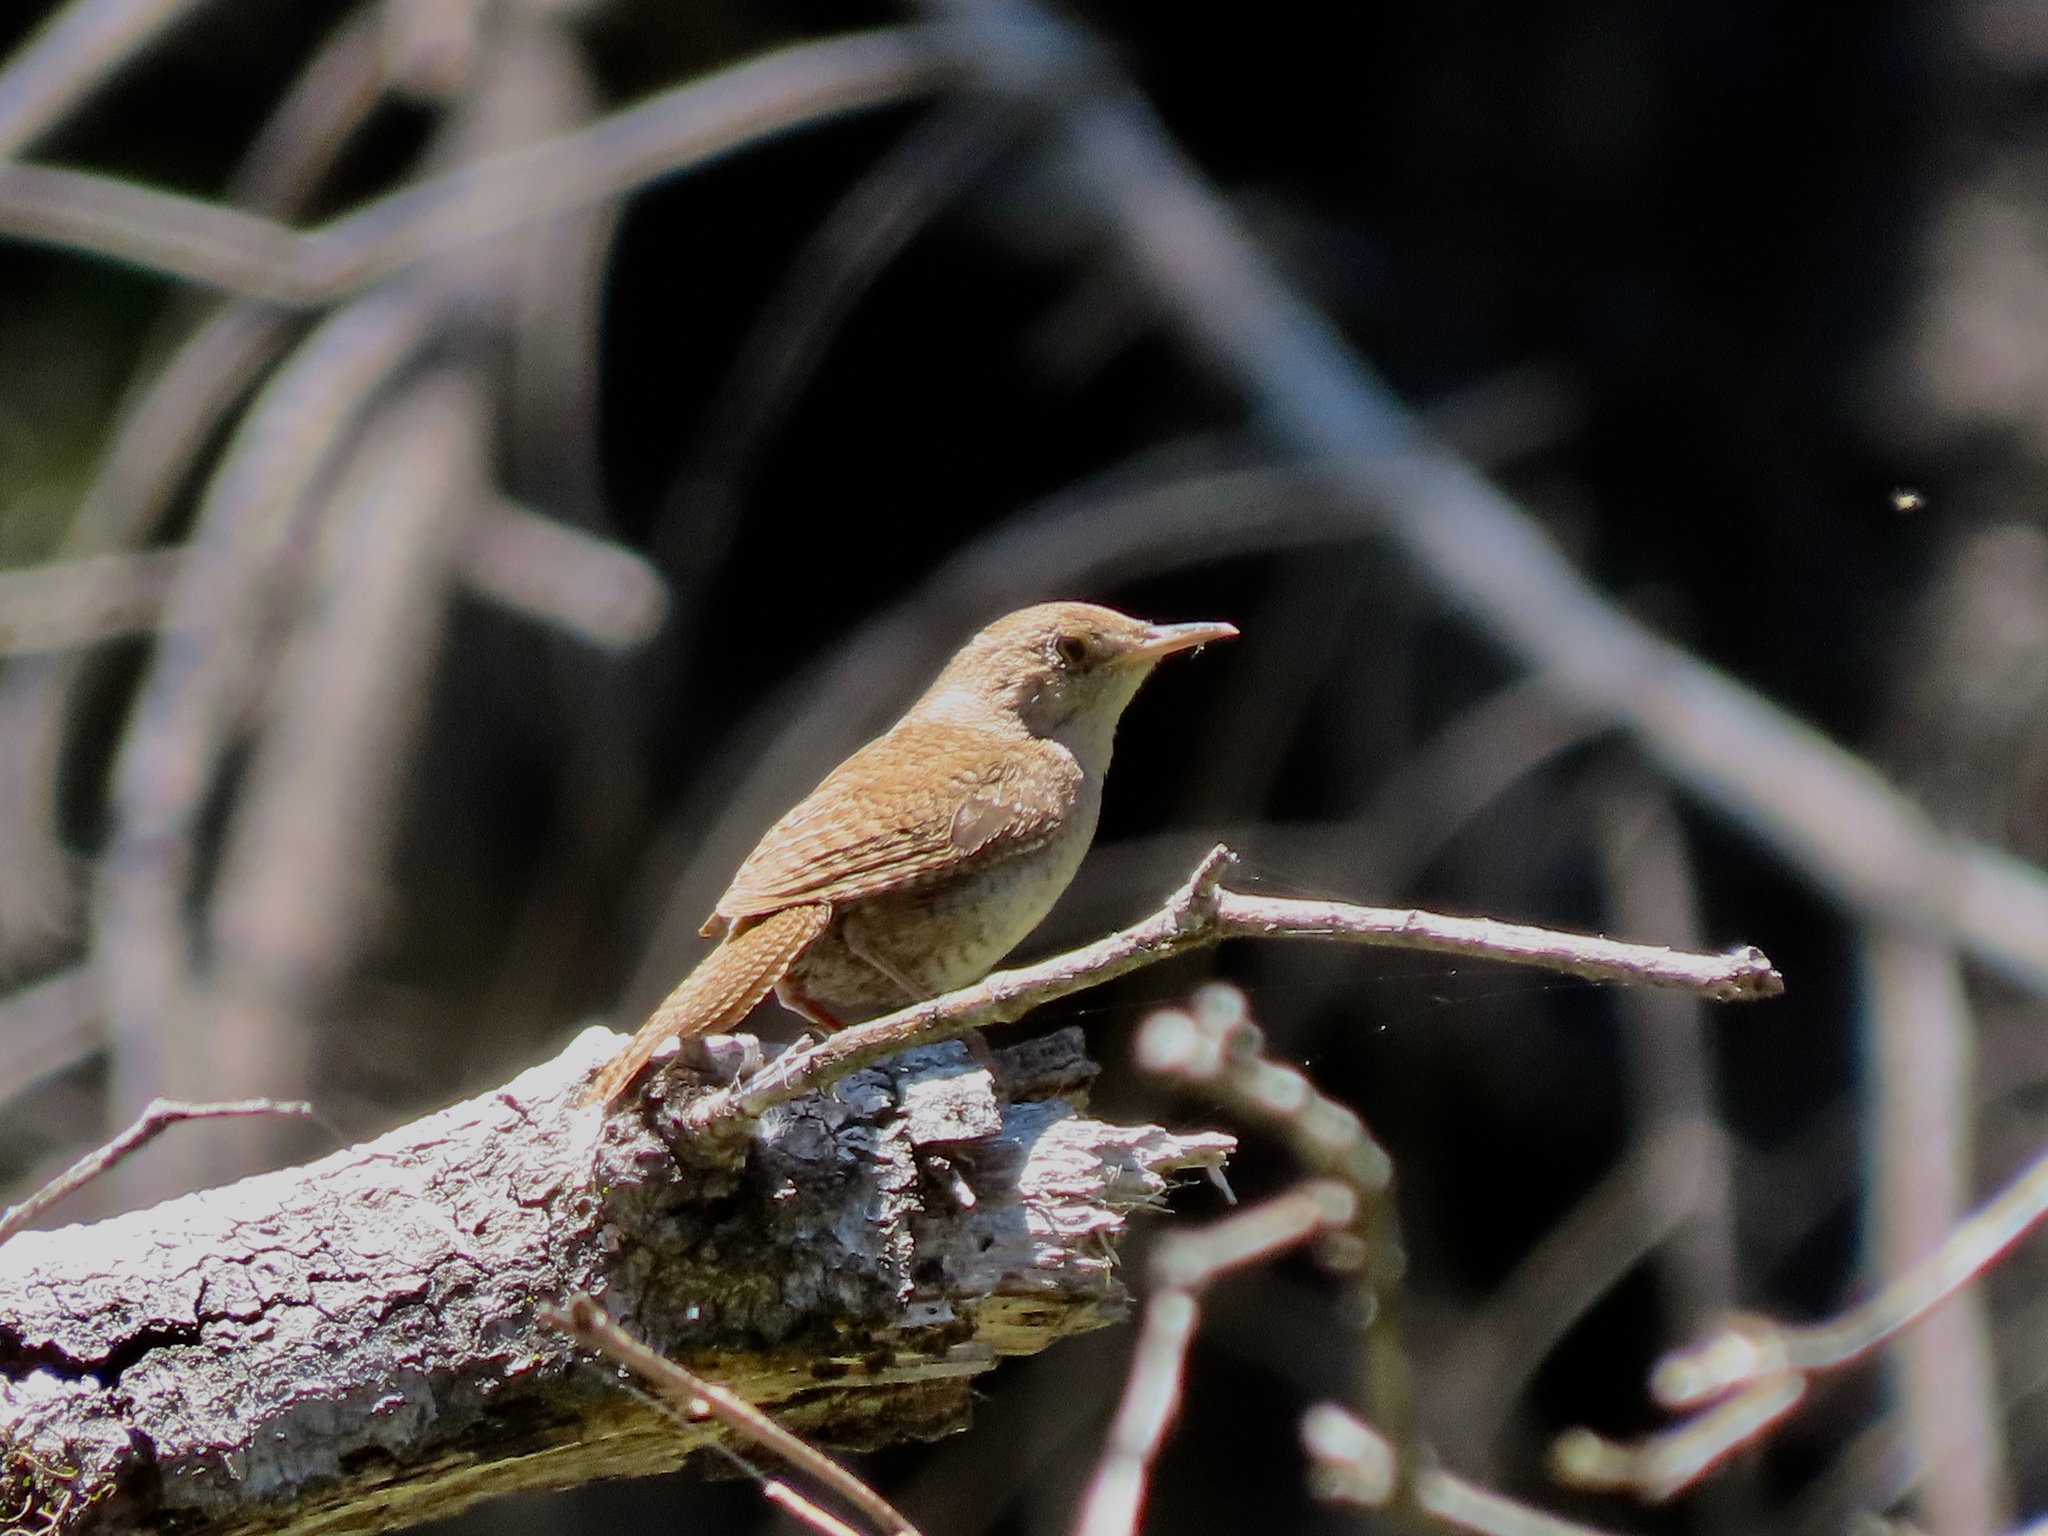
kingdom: Animalia
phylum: Chordata
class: Aves
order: Passeriformes
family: Troglodytidae
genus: Troglodytes
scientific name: Troglodytes aedon
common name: House wren
